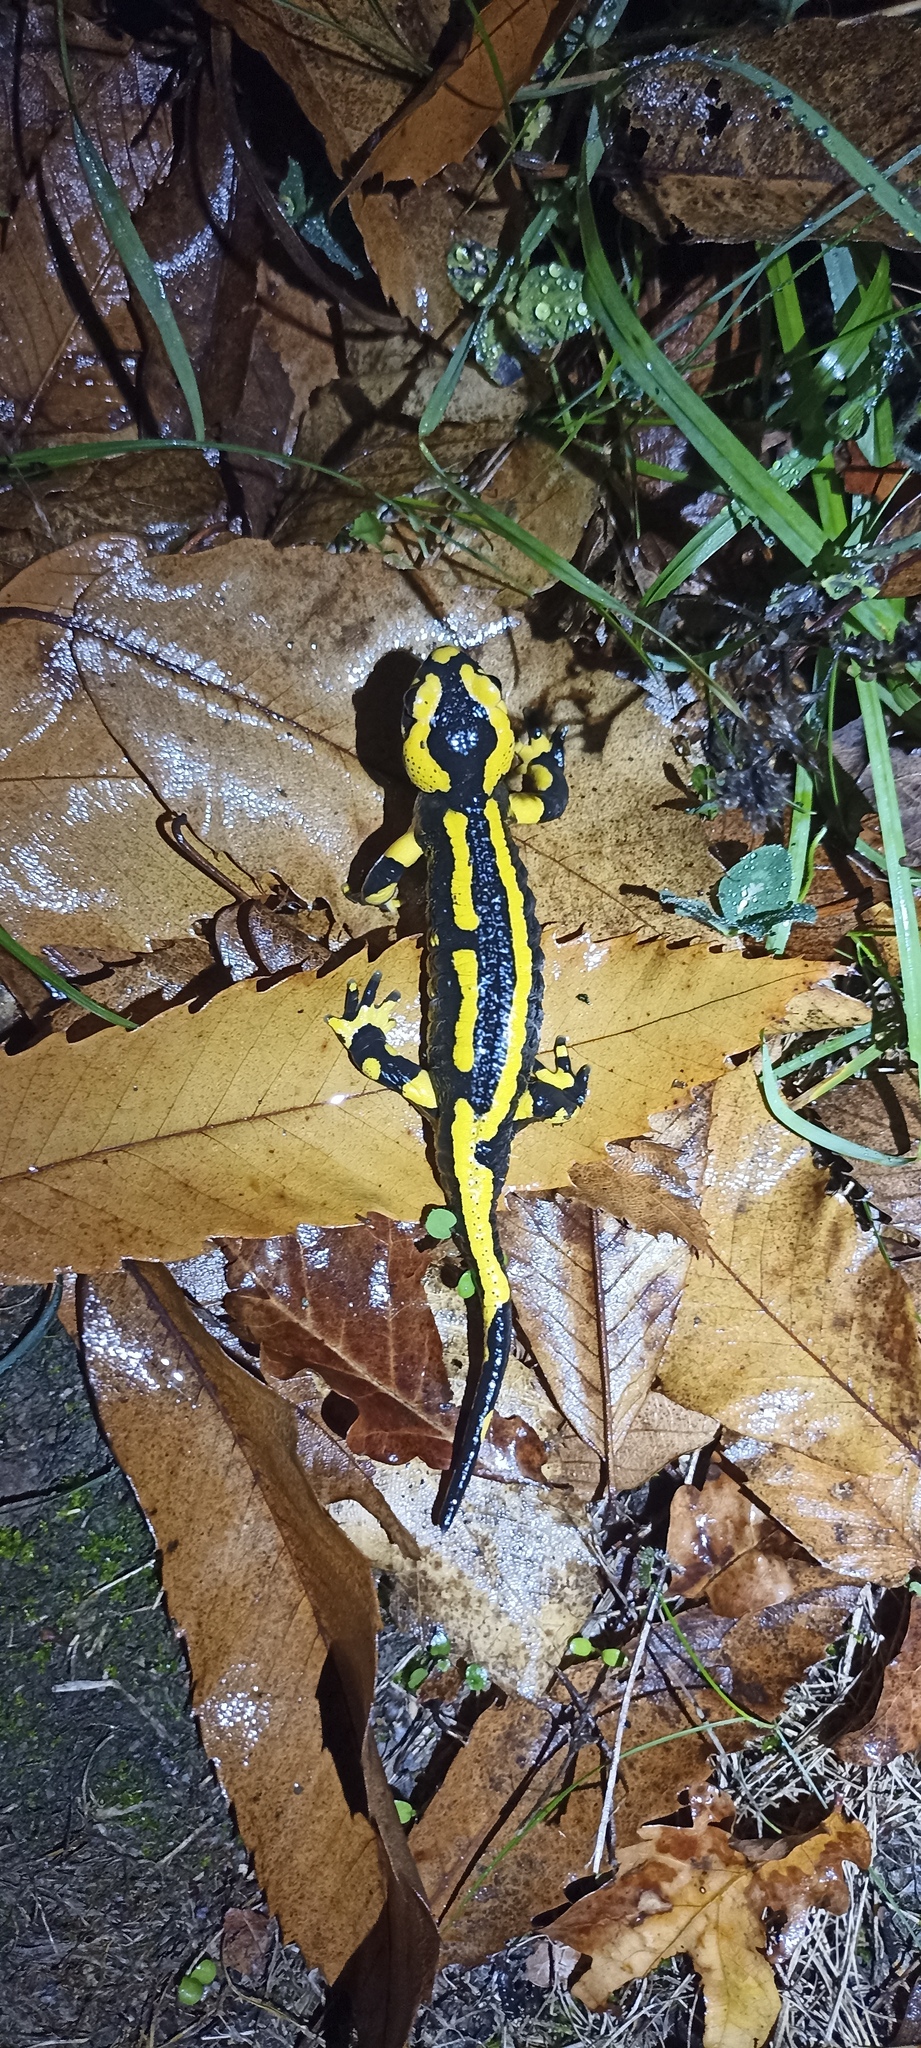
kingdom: Animalia
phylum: Chordata
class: Amphibia
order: Caudata
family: Salamandridae
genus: Salamandra
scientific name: Salamandra salamandra
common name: Fire salamander
